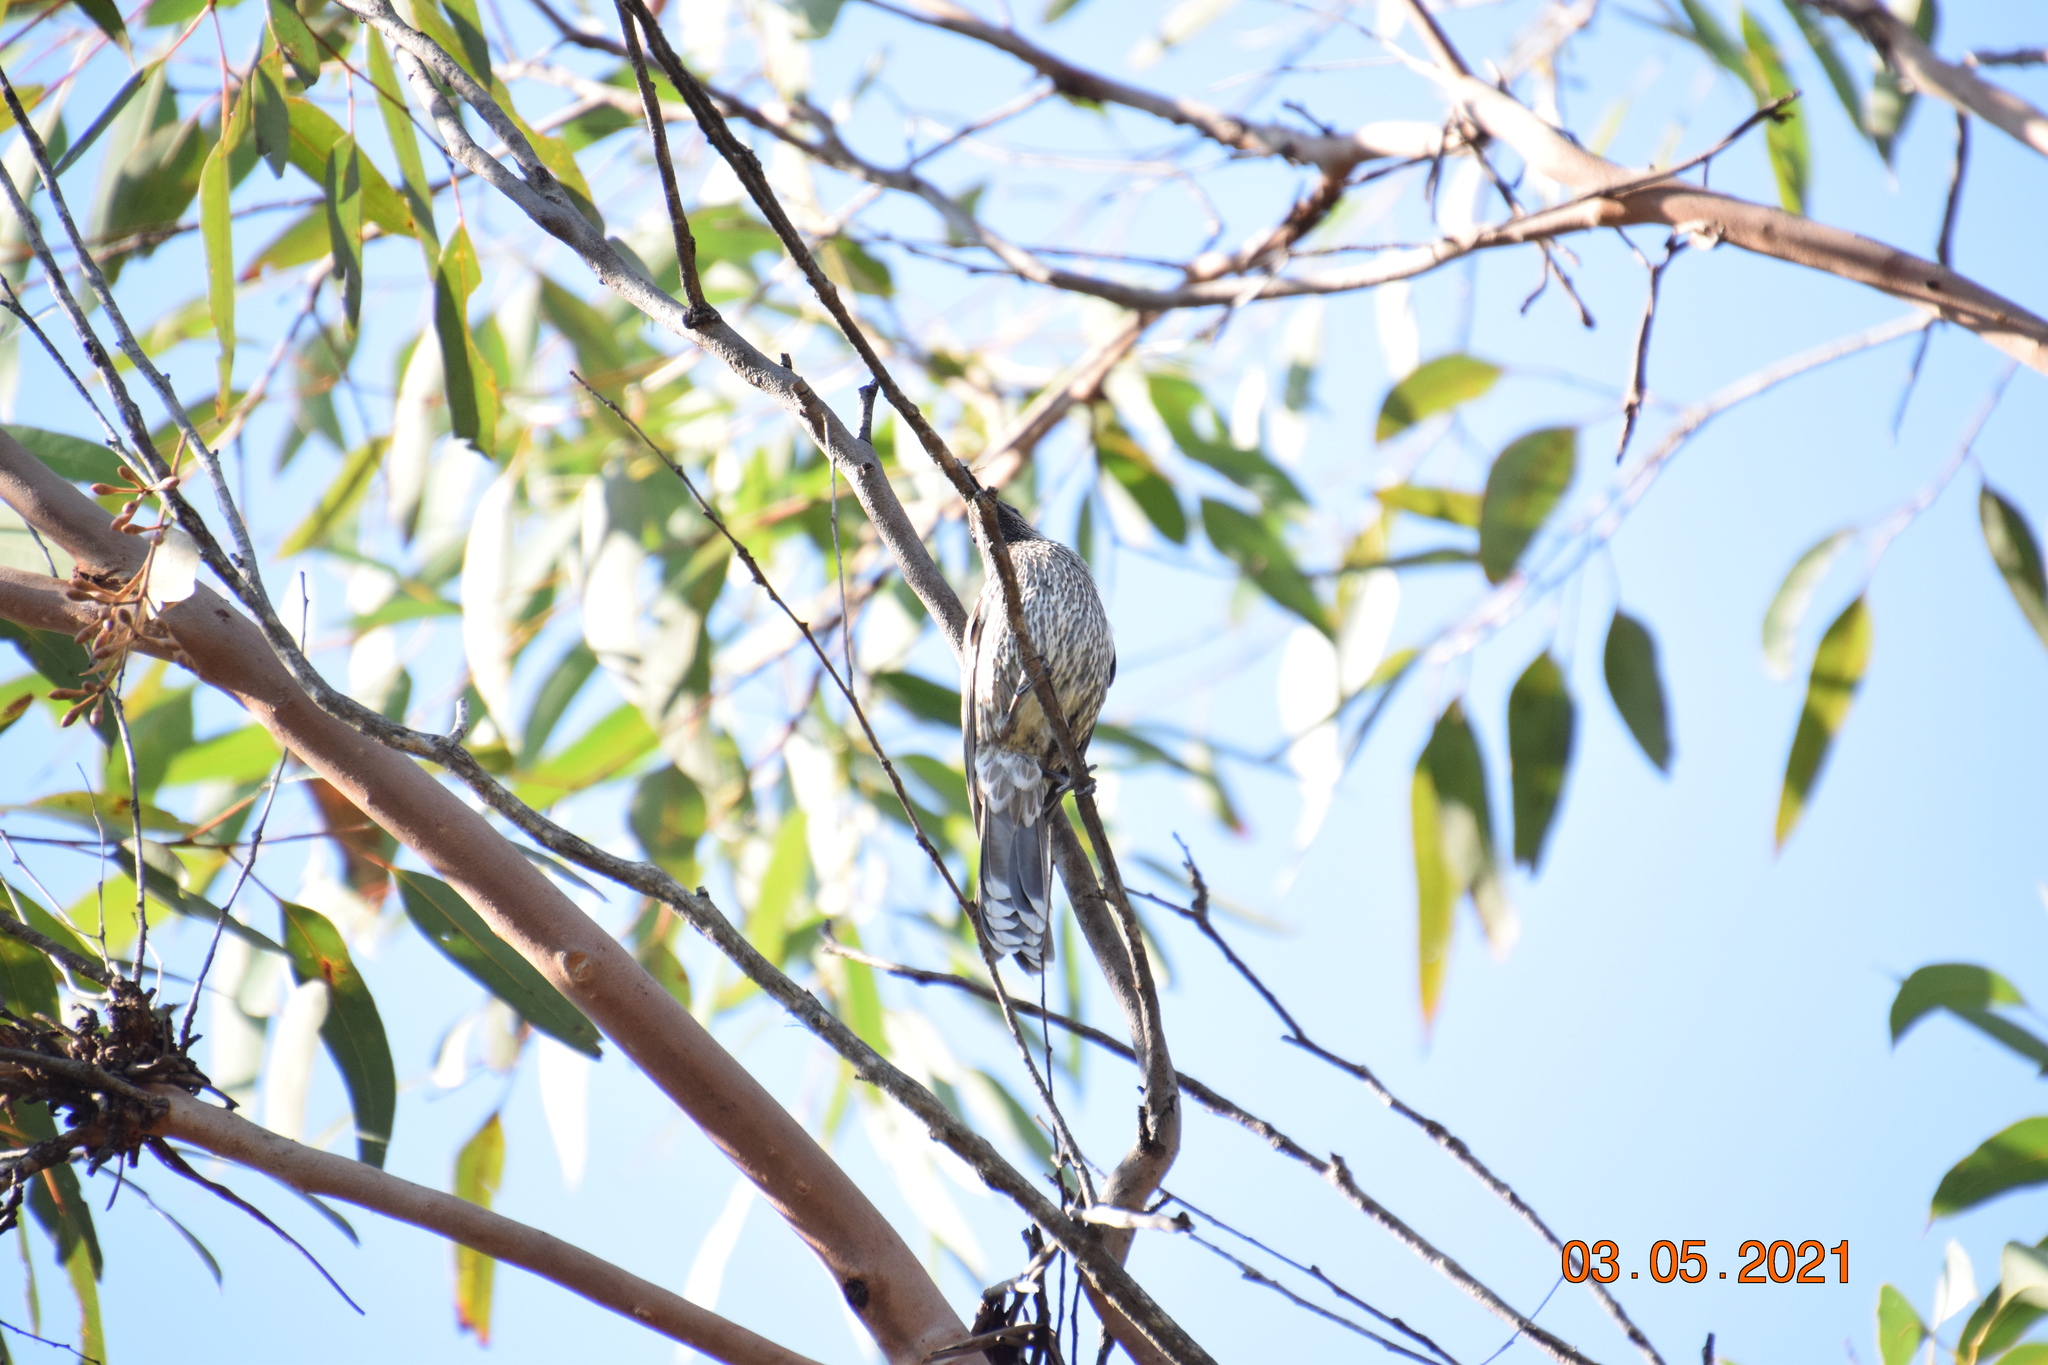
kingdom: Animalia
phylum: Chordata
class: Aves
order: Passeriformes
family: Meliphagidae
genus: Anthochaera
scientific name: Anthochaera chrysoptera
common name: Little wattlebird
